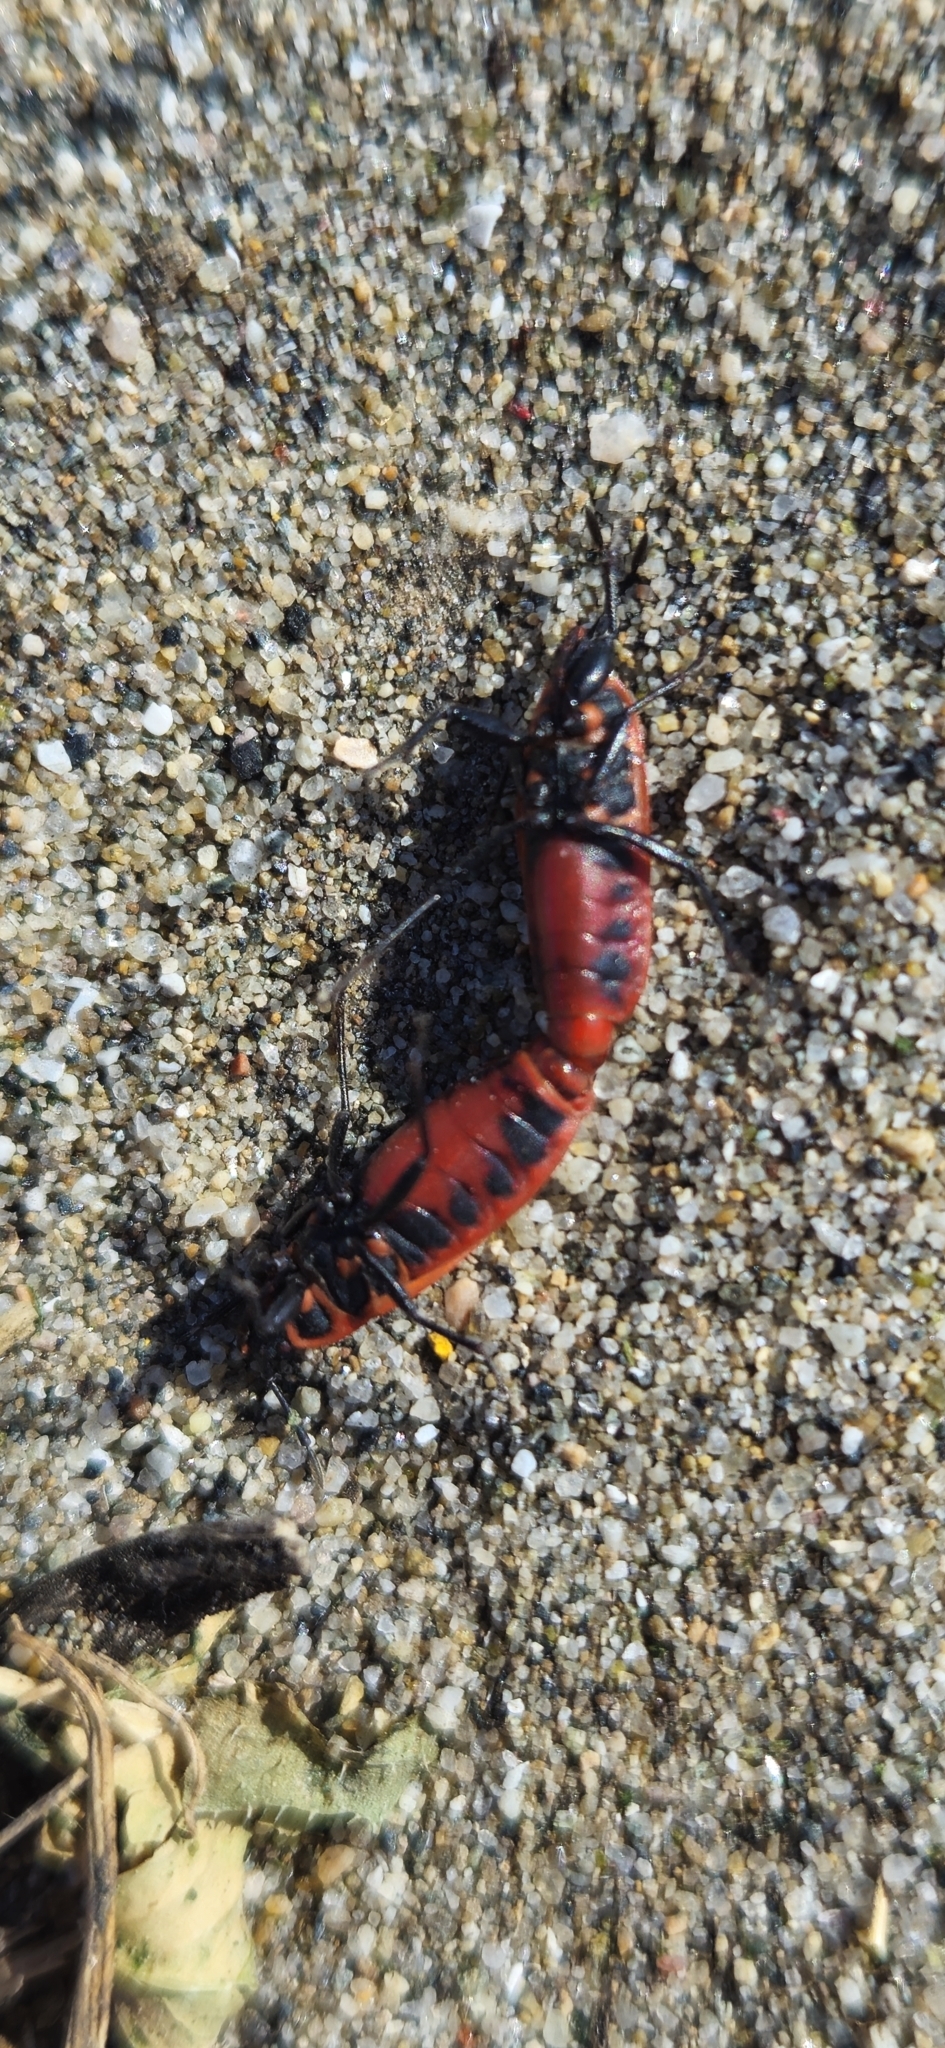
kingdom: Animalia
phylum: Arthropoda
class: Insecta
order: Hemiptera
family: Pyrrhocoridae
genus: Scantius
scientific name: Scantius aegyptius
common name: Red bug
